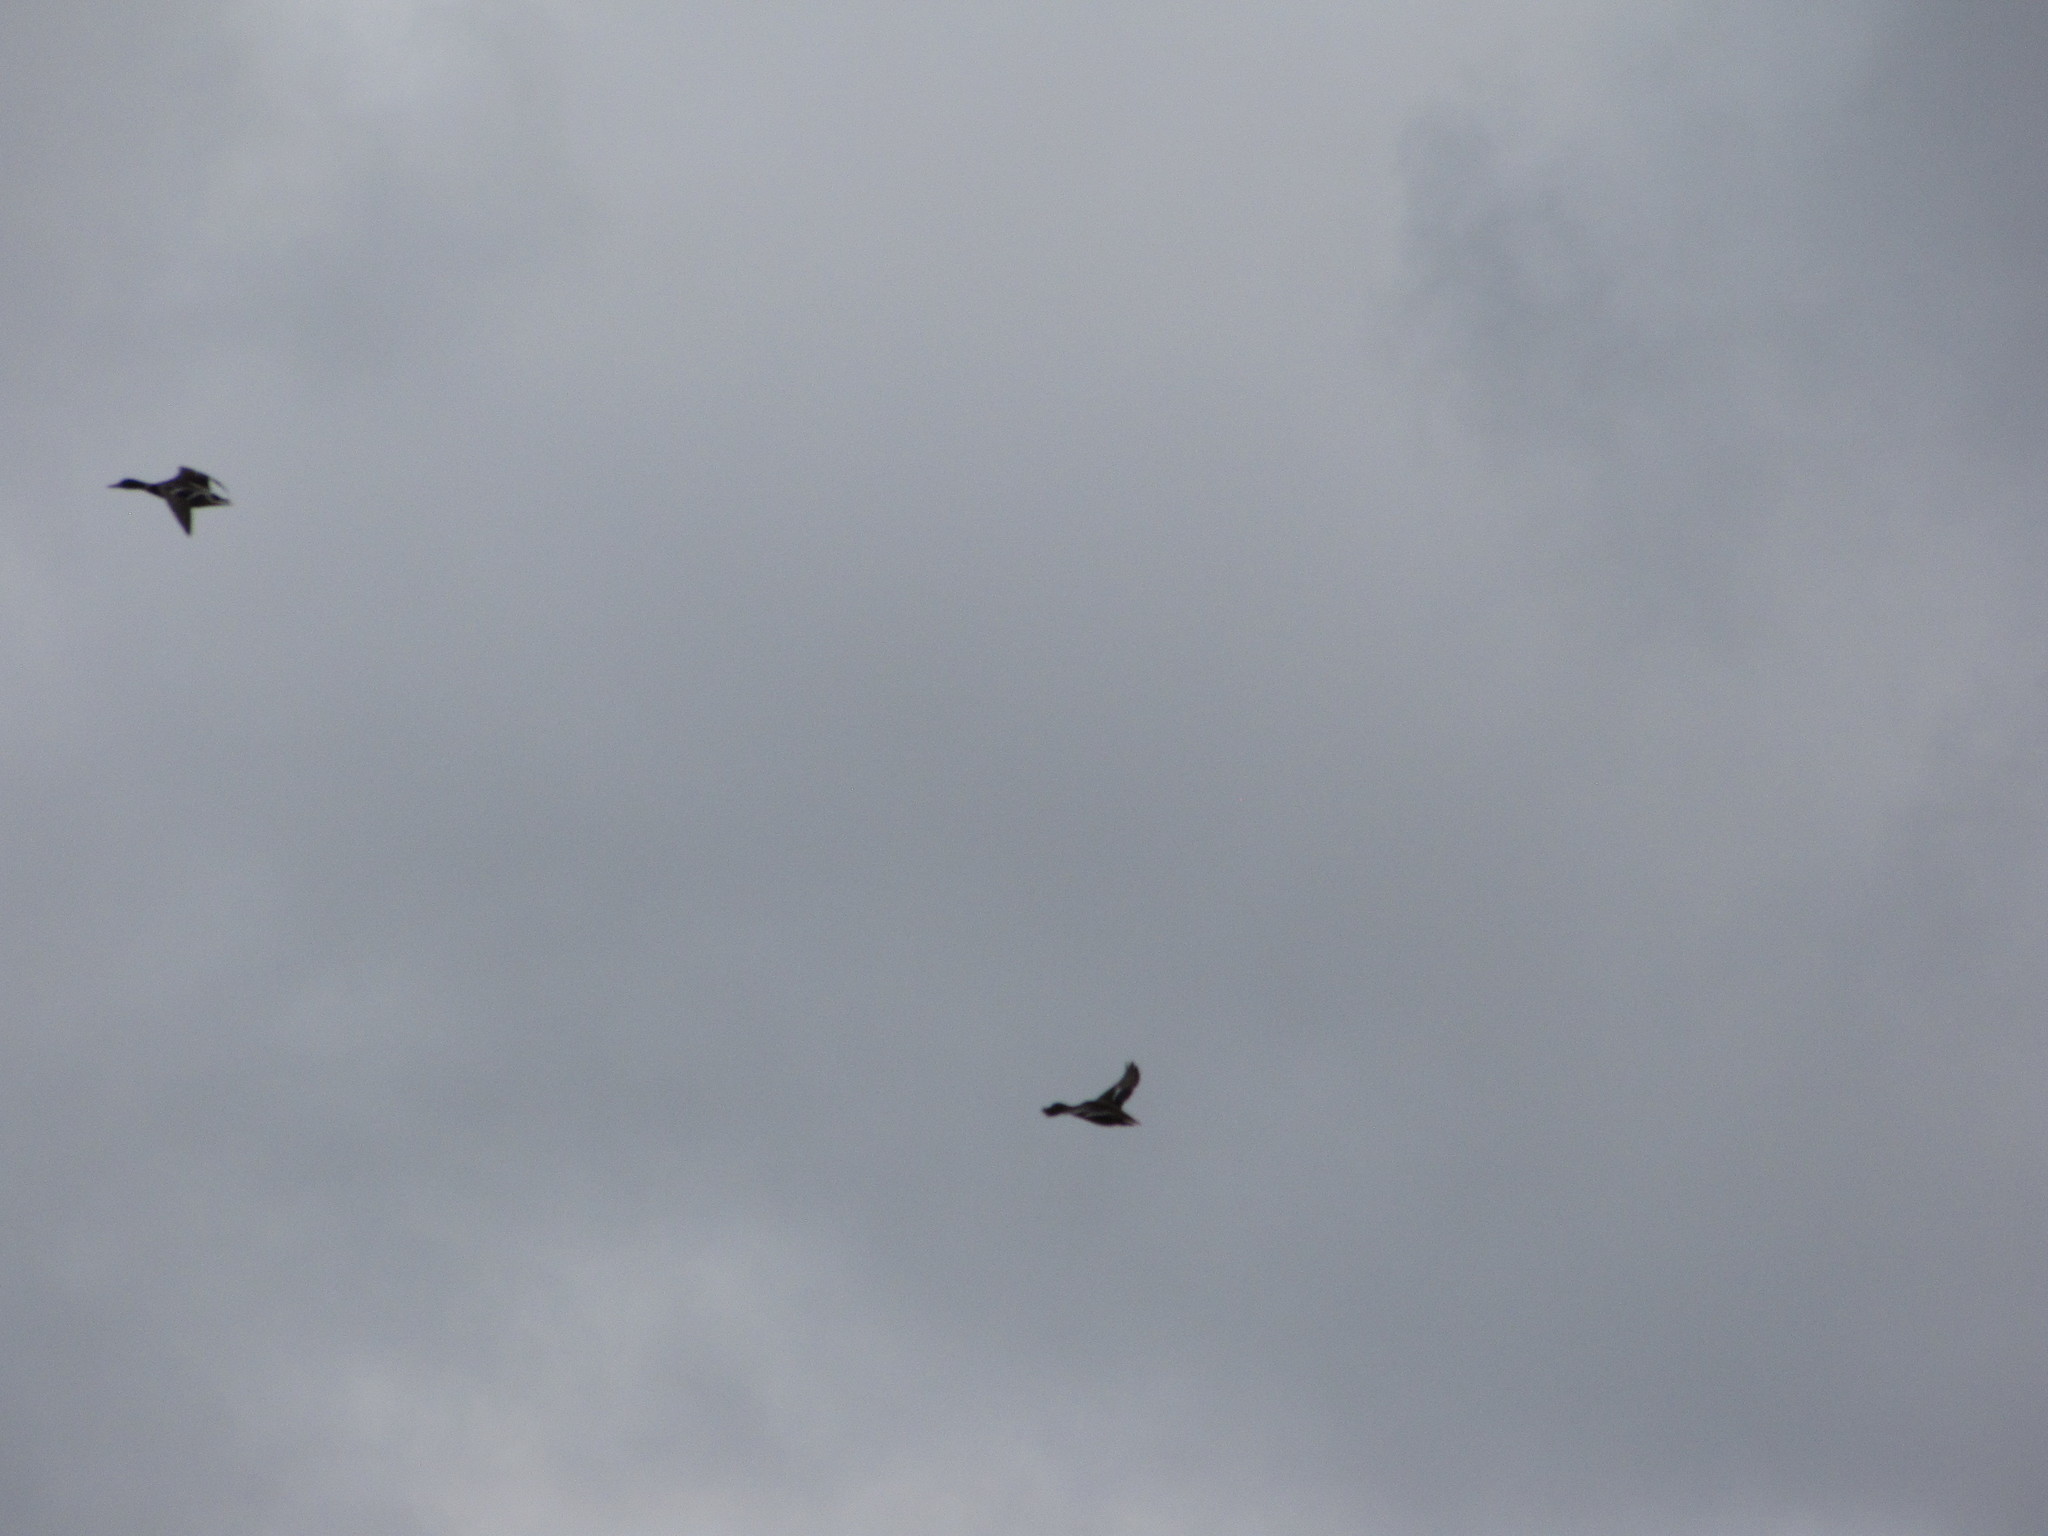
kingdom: Animalia
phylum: Chordata
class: Aves
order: Anseriformes
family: Anatidae
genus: Anas
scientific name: Anas platyrhynchos
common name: Mallard
